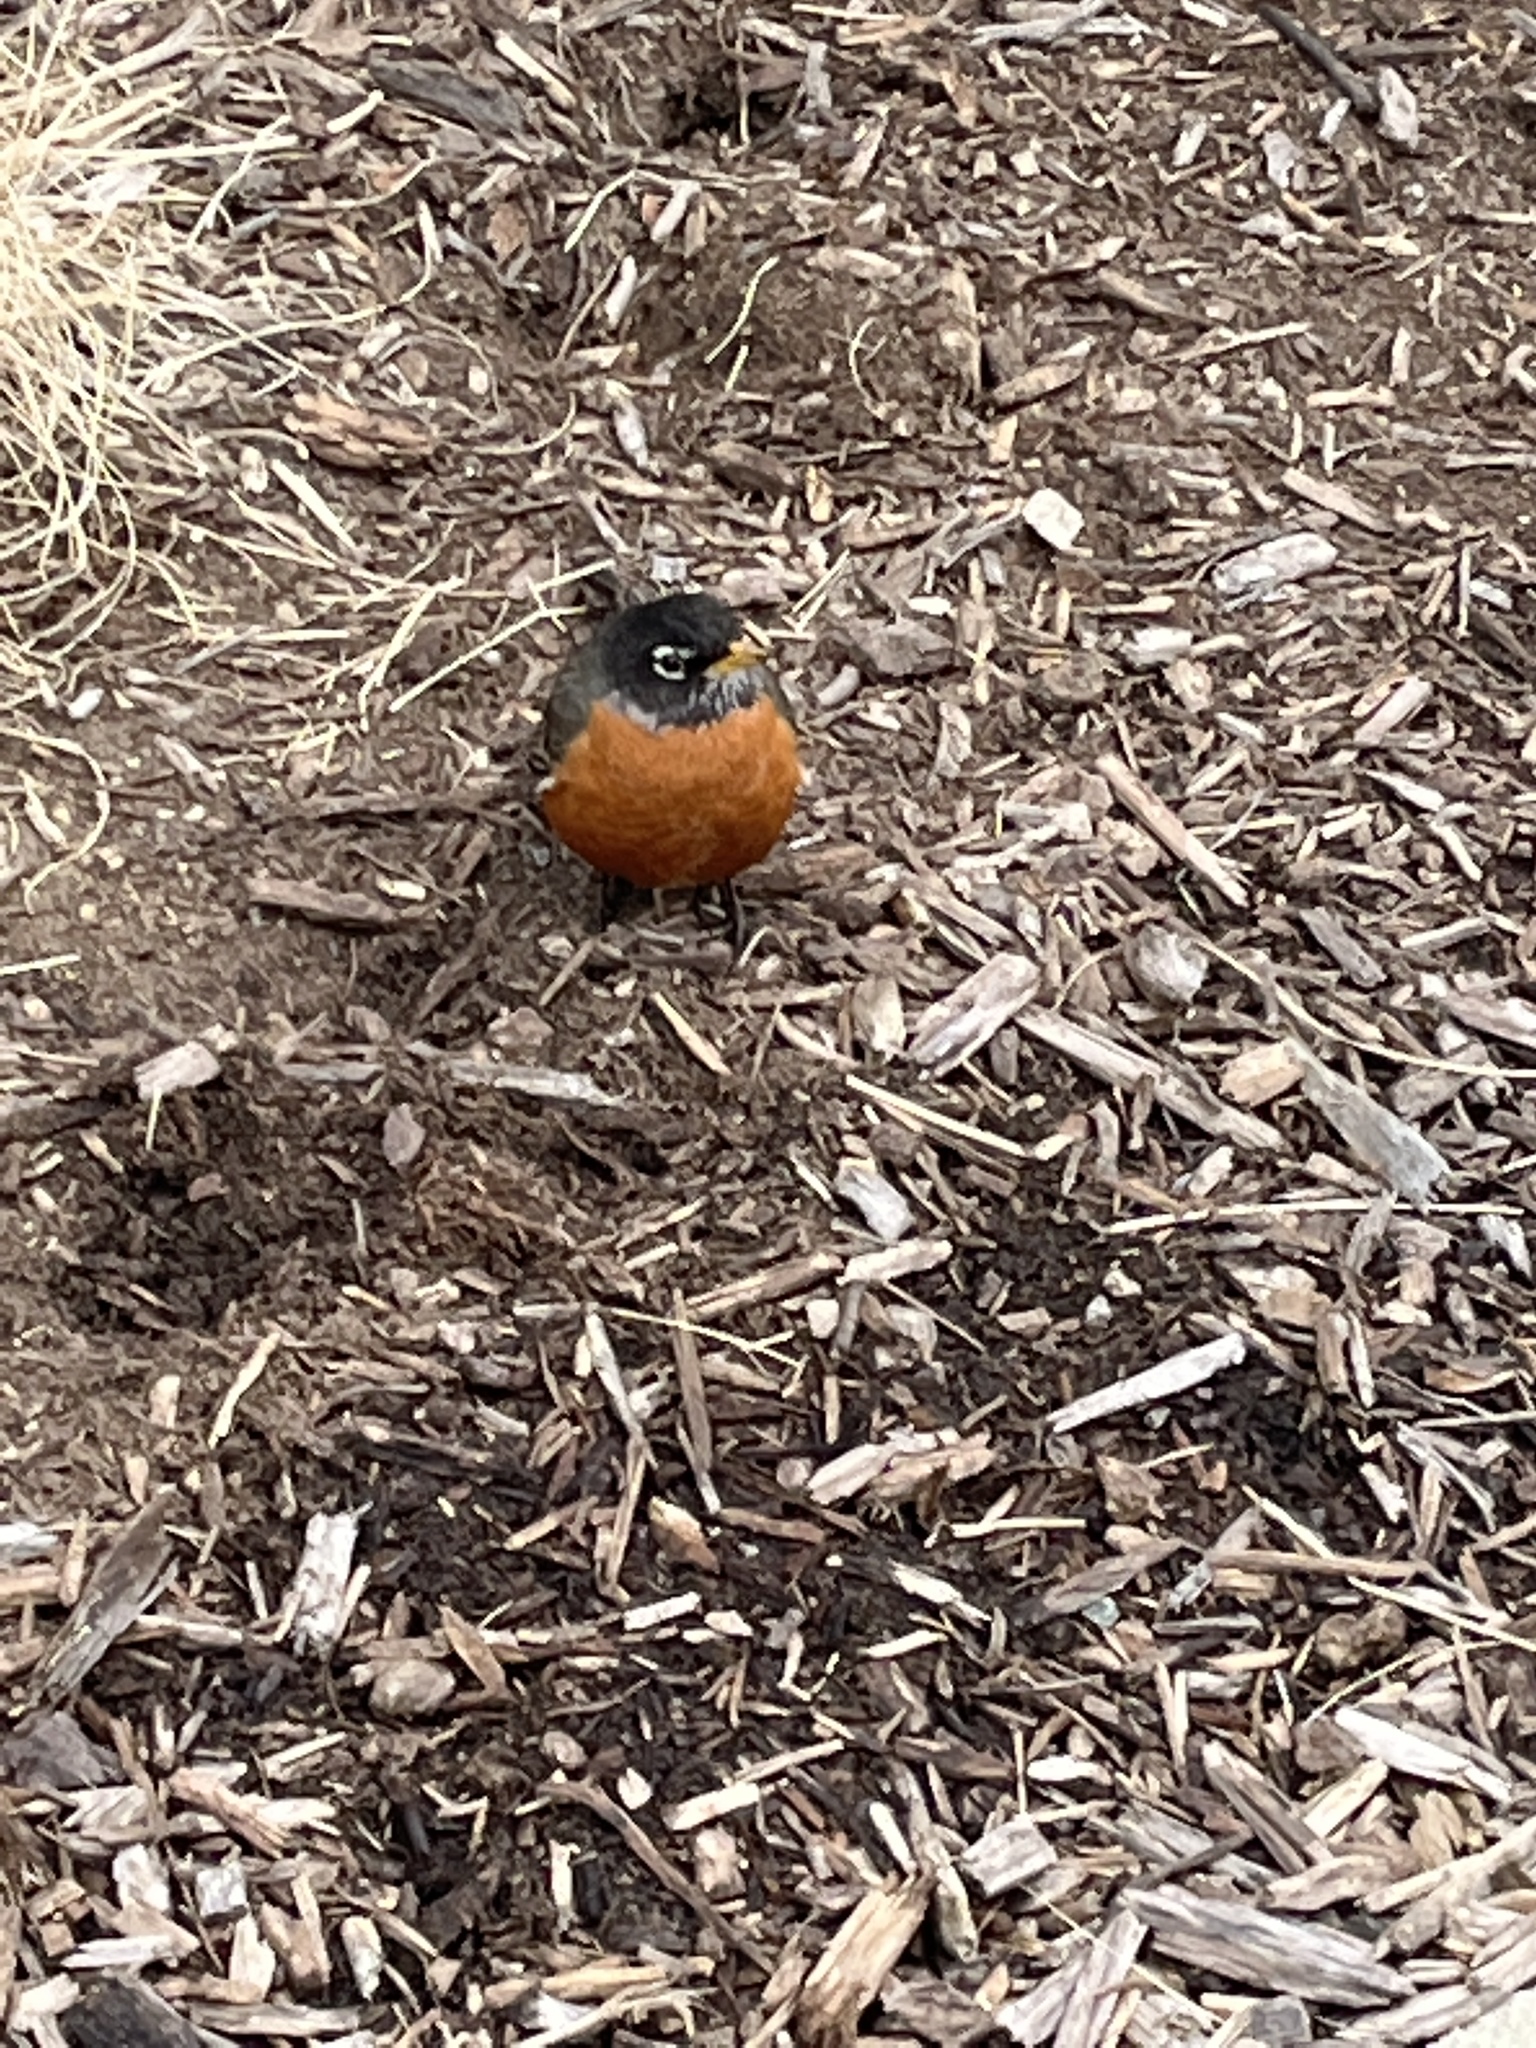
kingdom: Animalia
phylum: Chordata
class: Aves
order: Passeriformes
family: Turdidae
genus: Turdus
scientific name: Turdus migratorius
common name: American robin
